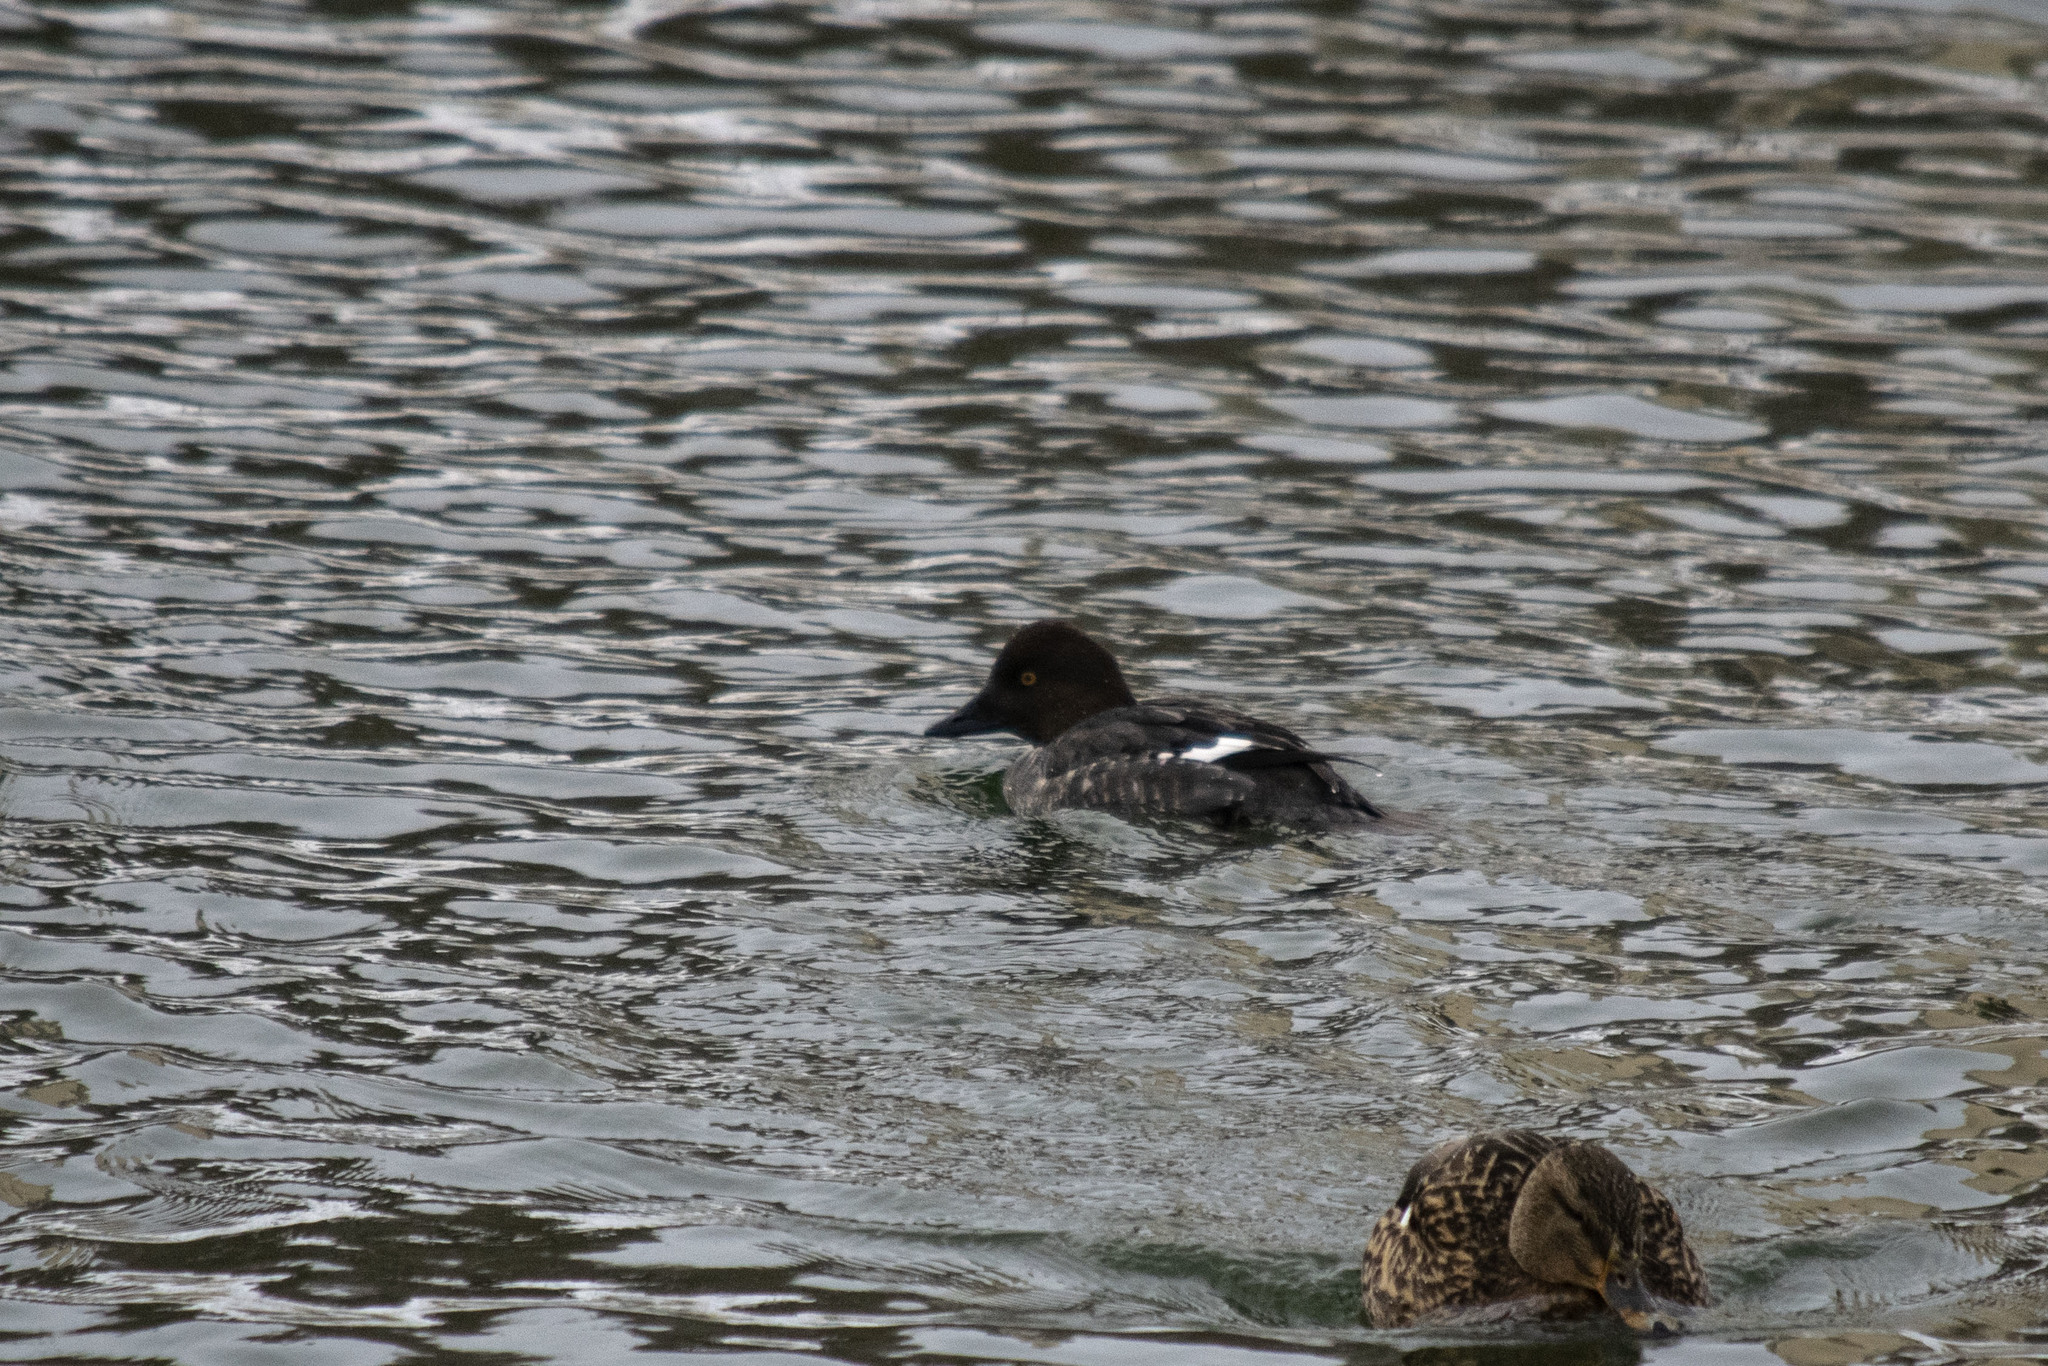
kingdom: Animalia
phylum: Chordata
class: Aves
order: Anseriformes
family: Anatidae
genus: Bucephala
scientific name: Bucephala clangula
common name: Common goldeneye
